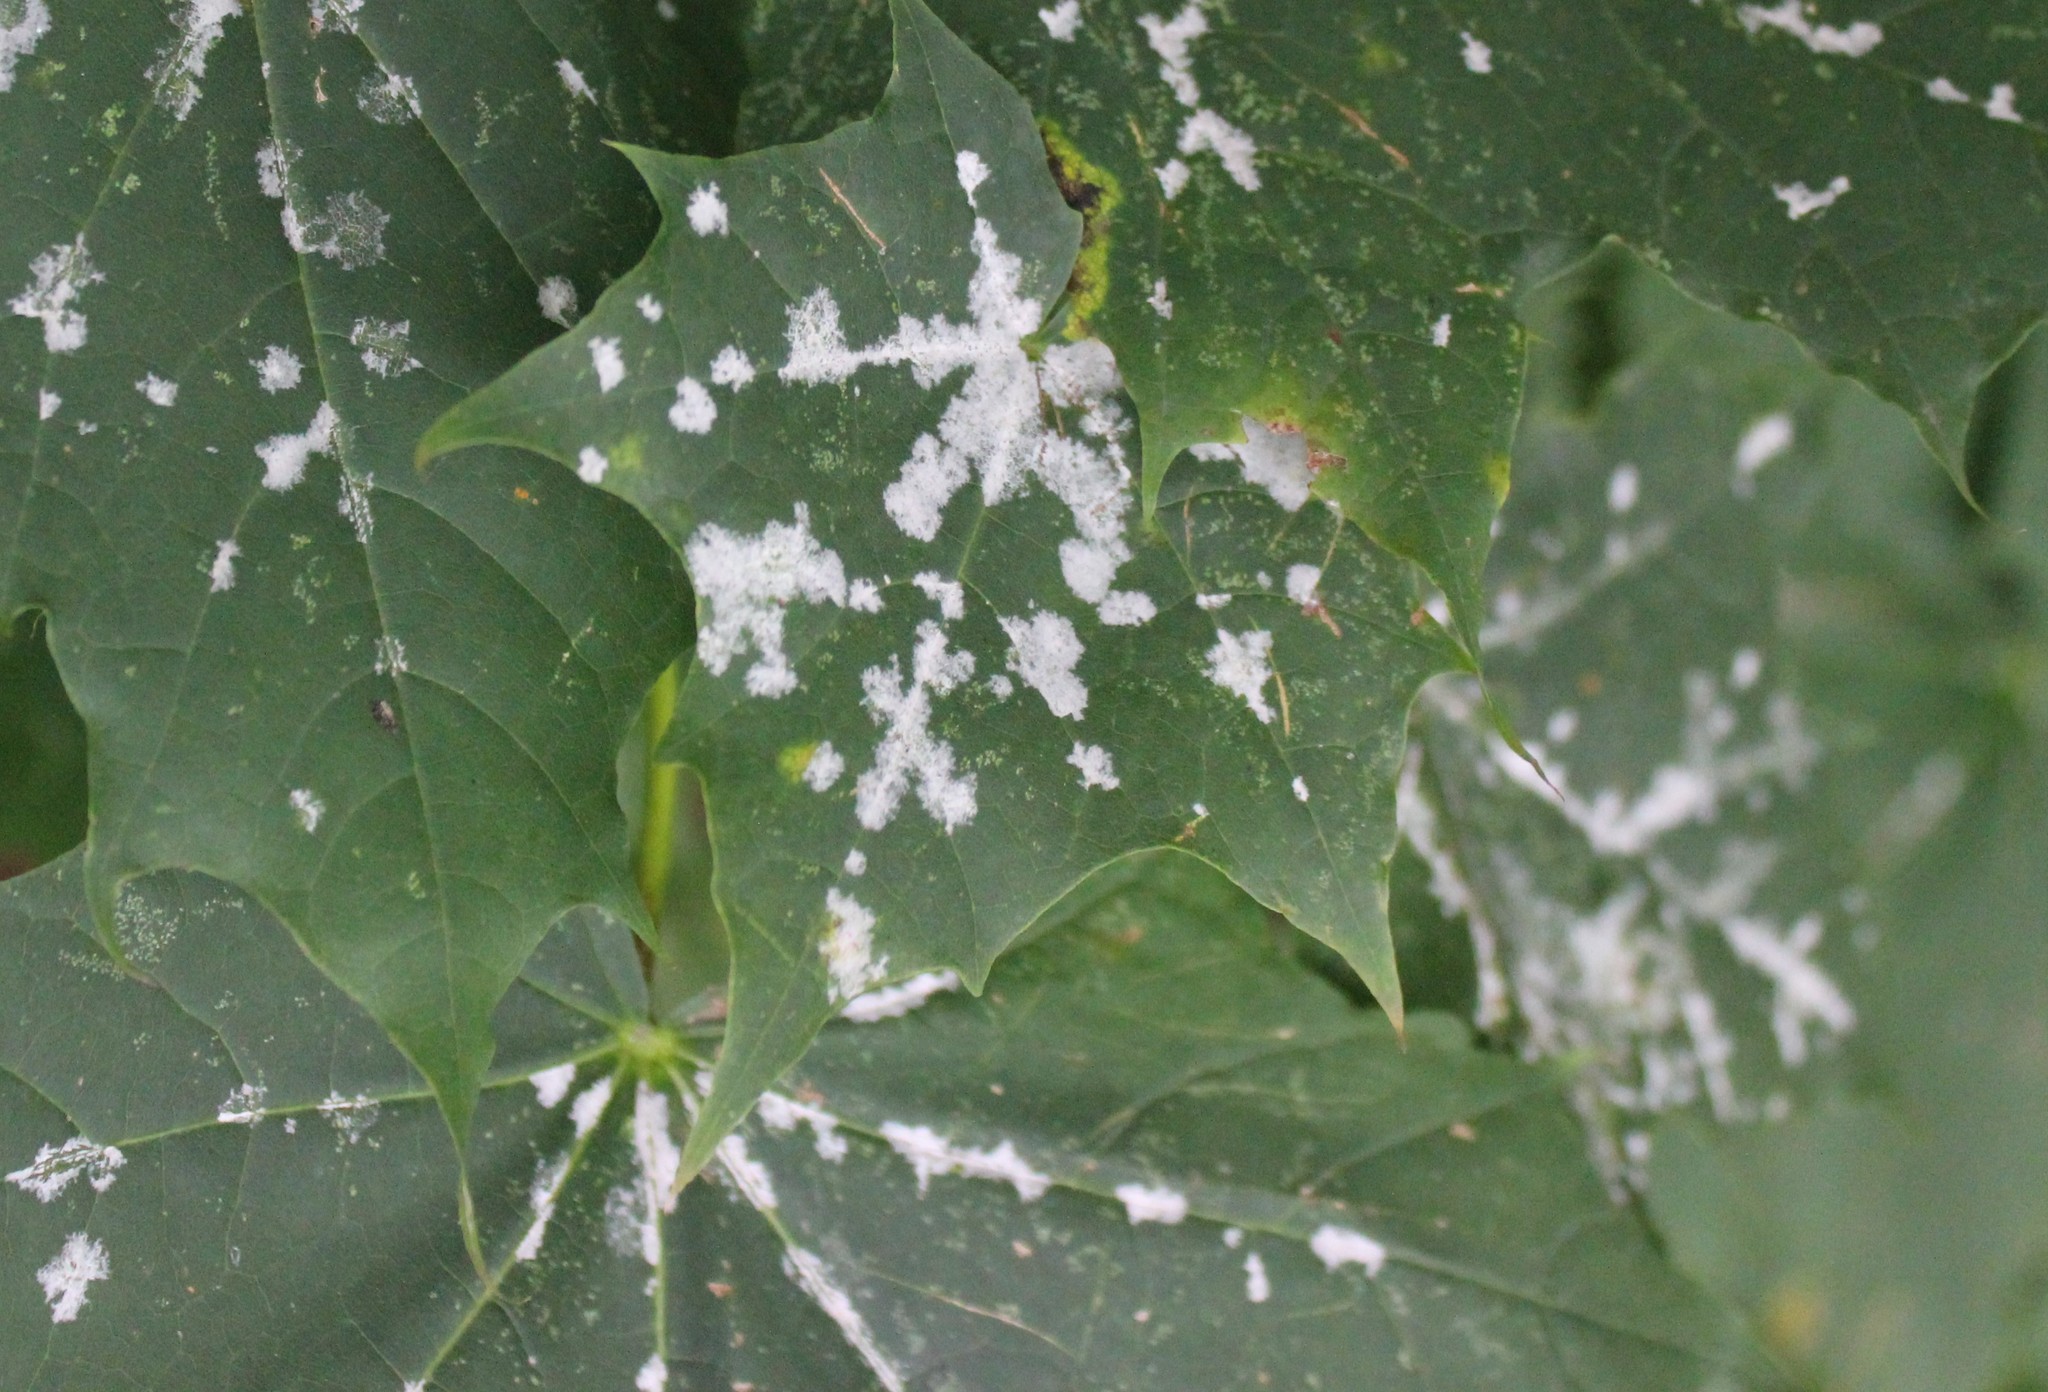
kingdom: Fungi
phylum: Ascomycota
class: Leotiomycetes
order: Helotiales
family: Erysiphaceae
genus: Sawadaea
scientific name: Sawadaea tulasnei
